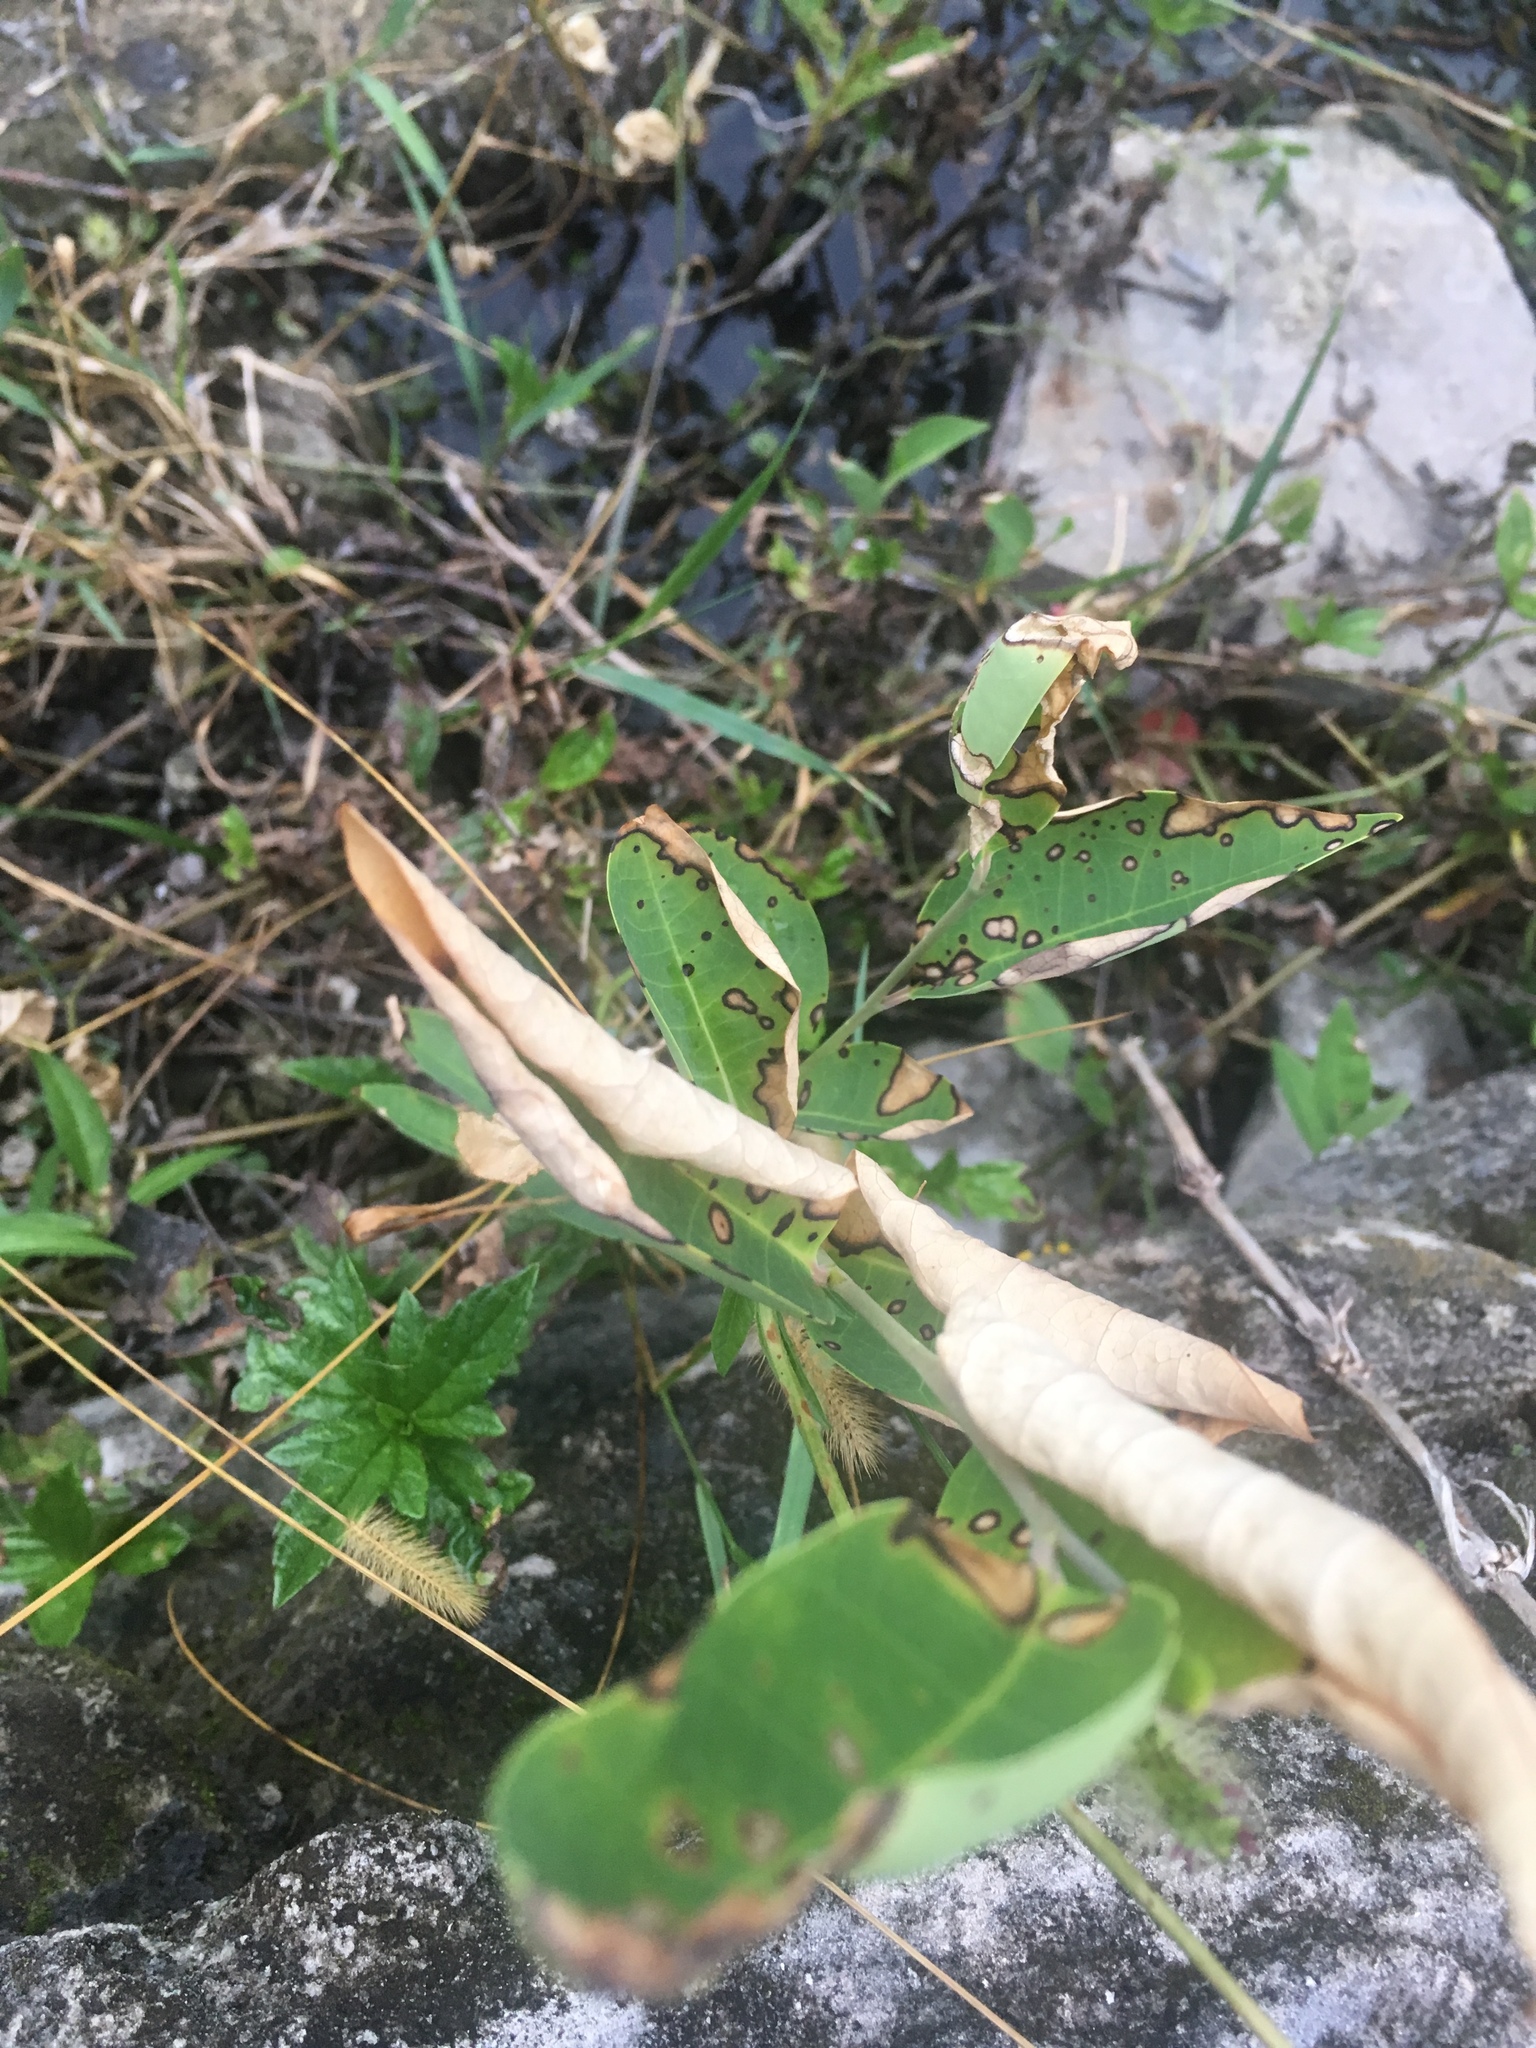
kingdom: Plantae
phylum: Tracheophyta
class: Liliopsida
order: Poales
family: Poaceae
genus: Setaria
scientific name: Setaria parviflora
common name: Knotroot bristle-grass
